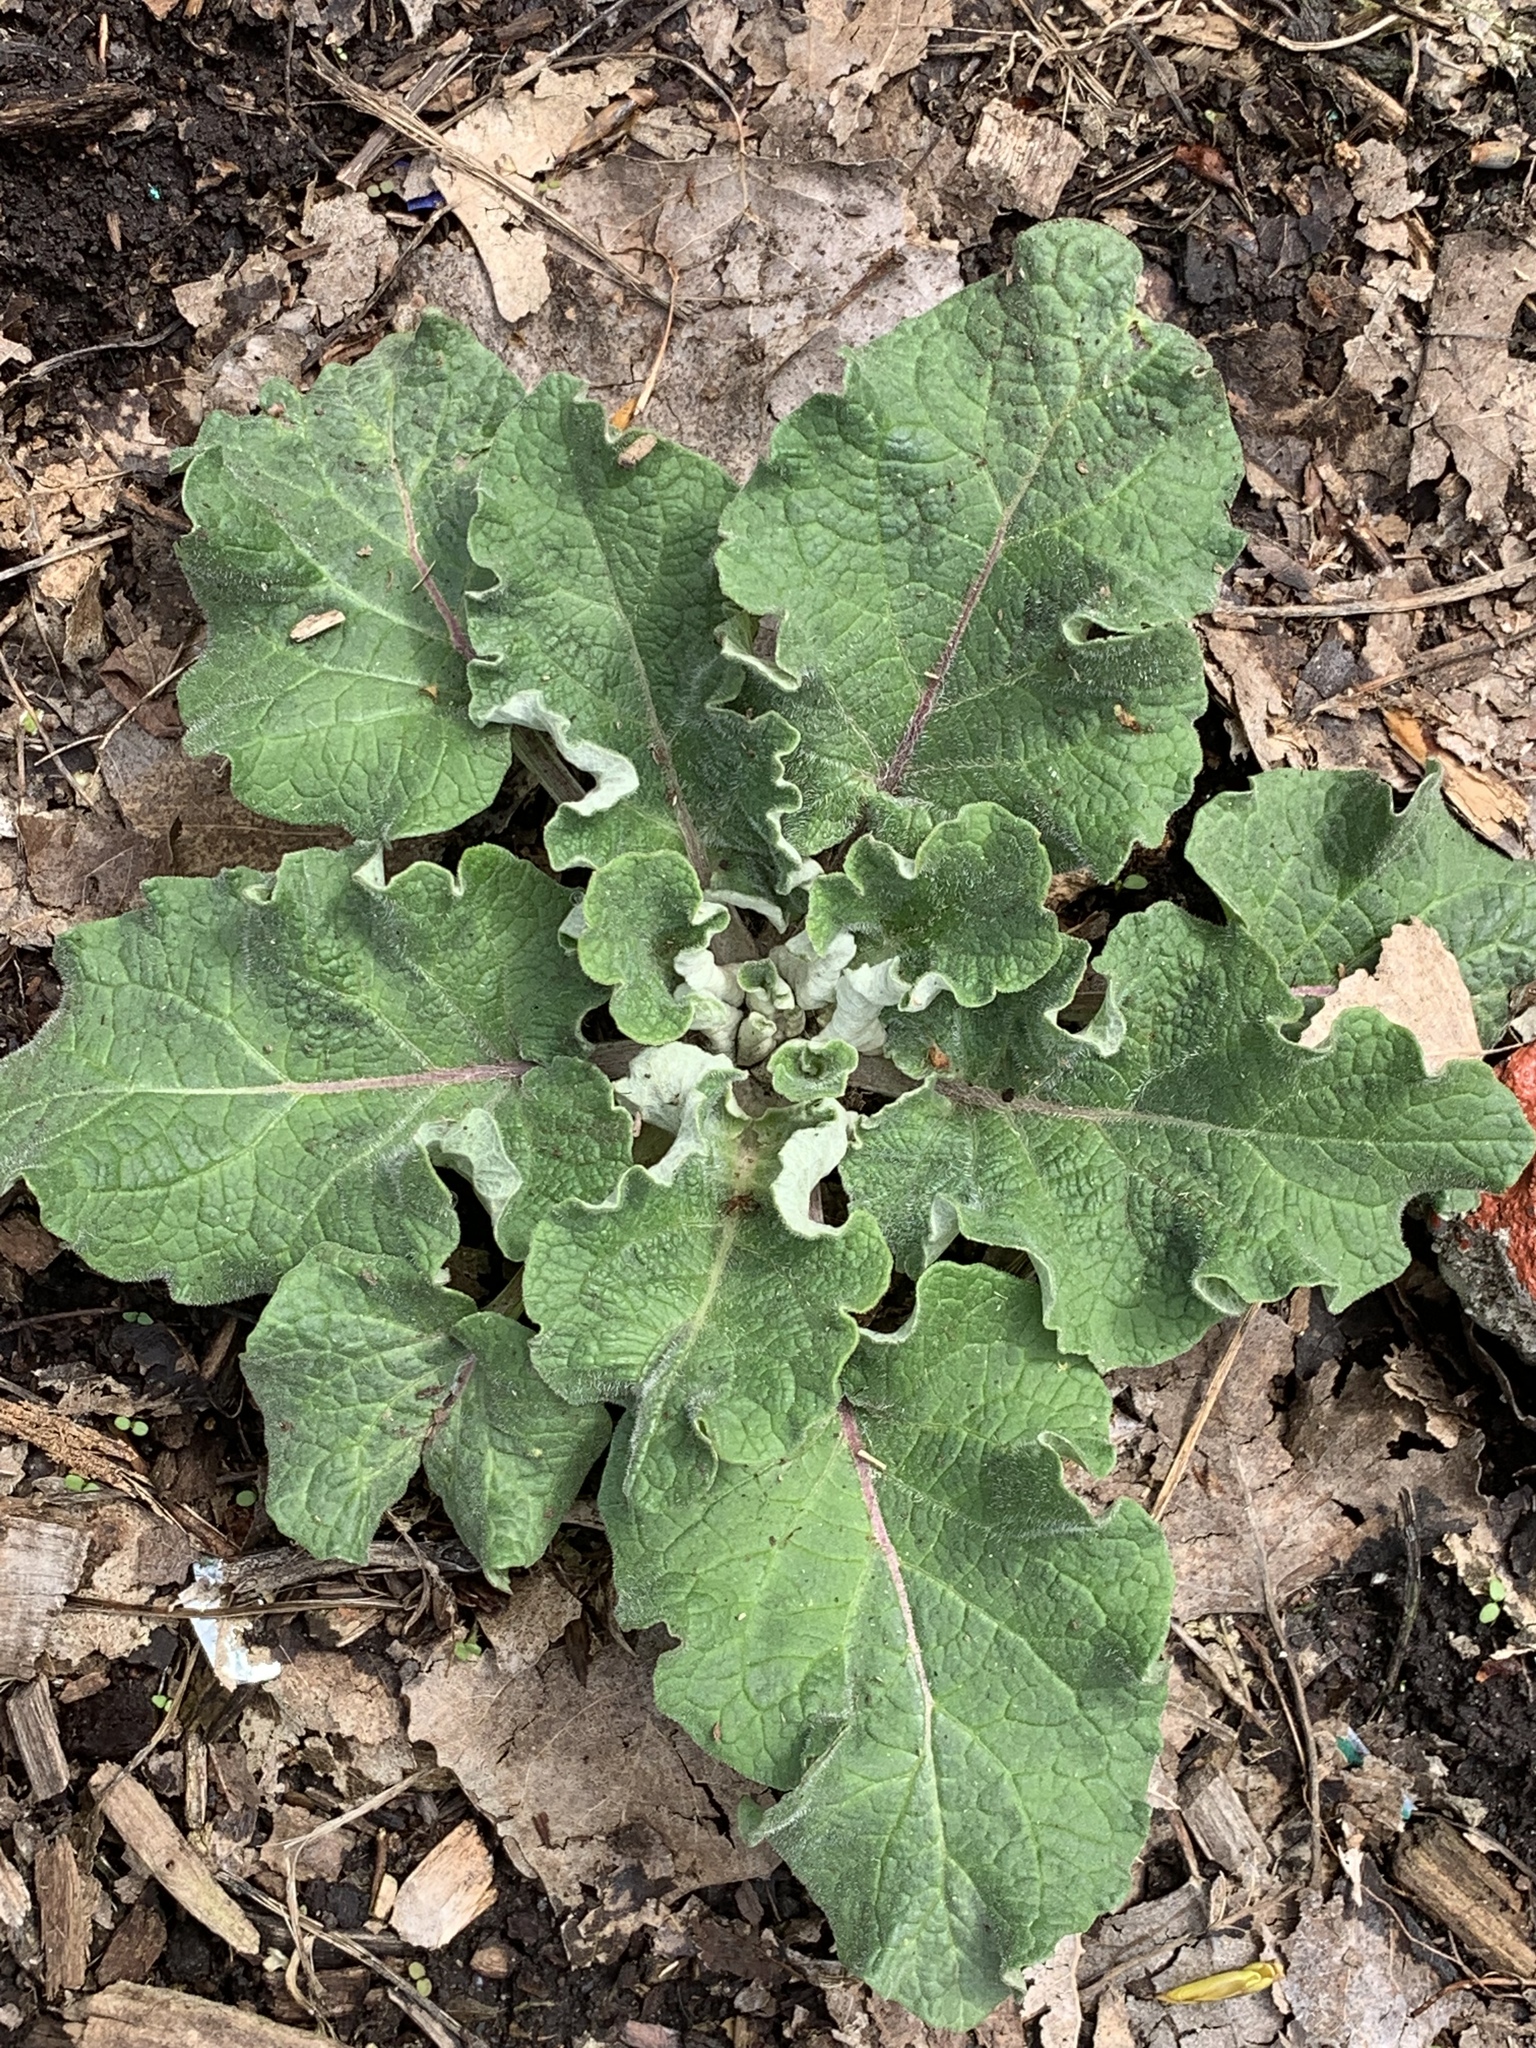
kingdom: Plantae
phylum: Tracheophyta
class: Magnoliopsida
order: Asterales
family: Asteraceae
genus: Arctium
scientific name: Arctium
